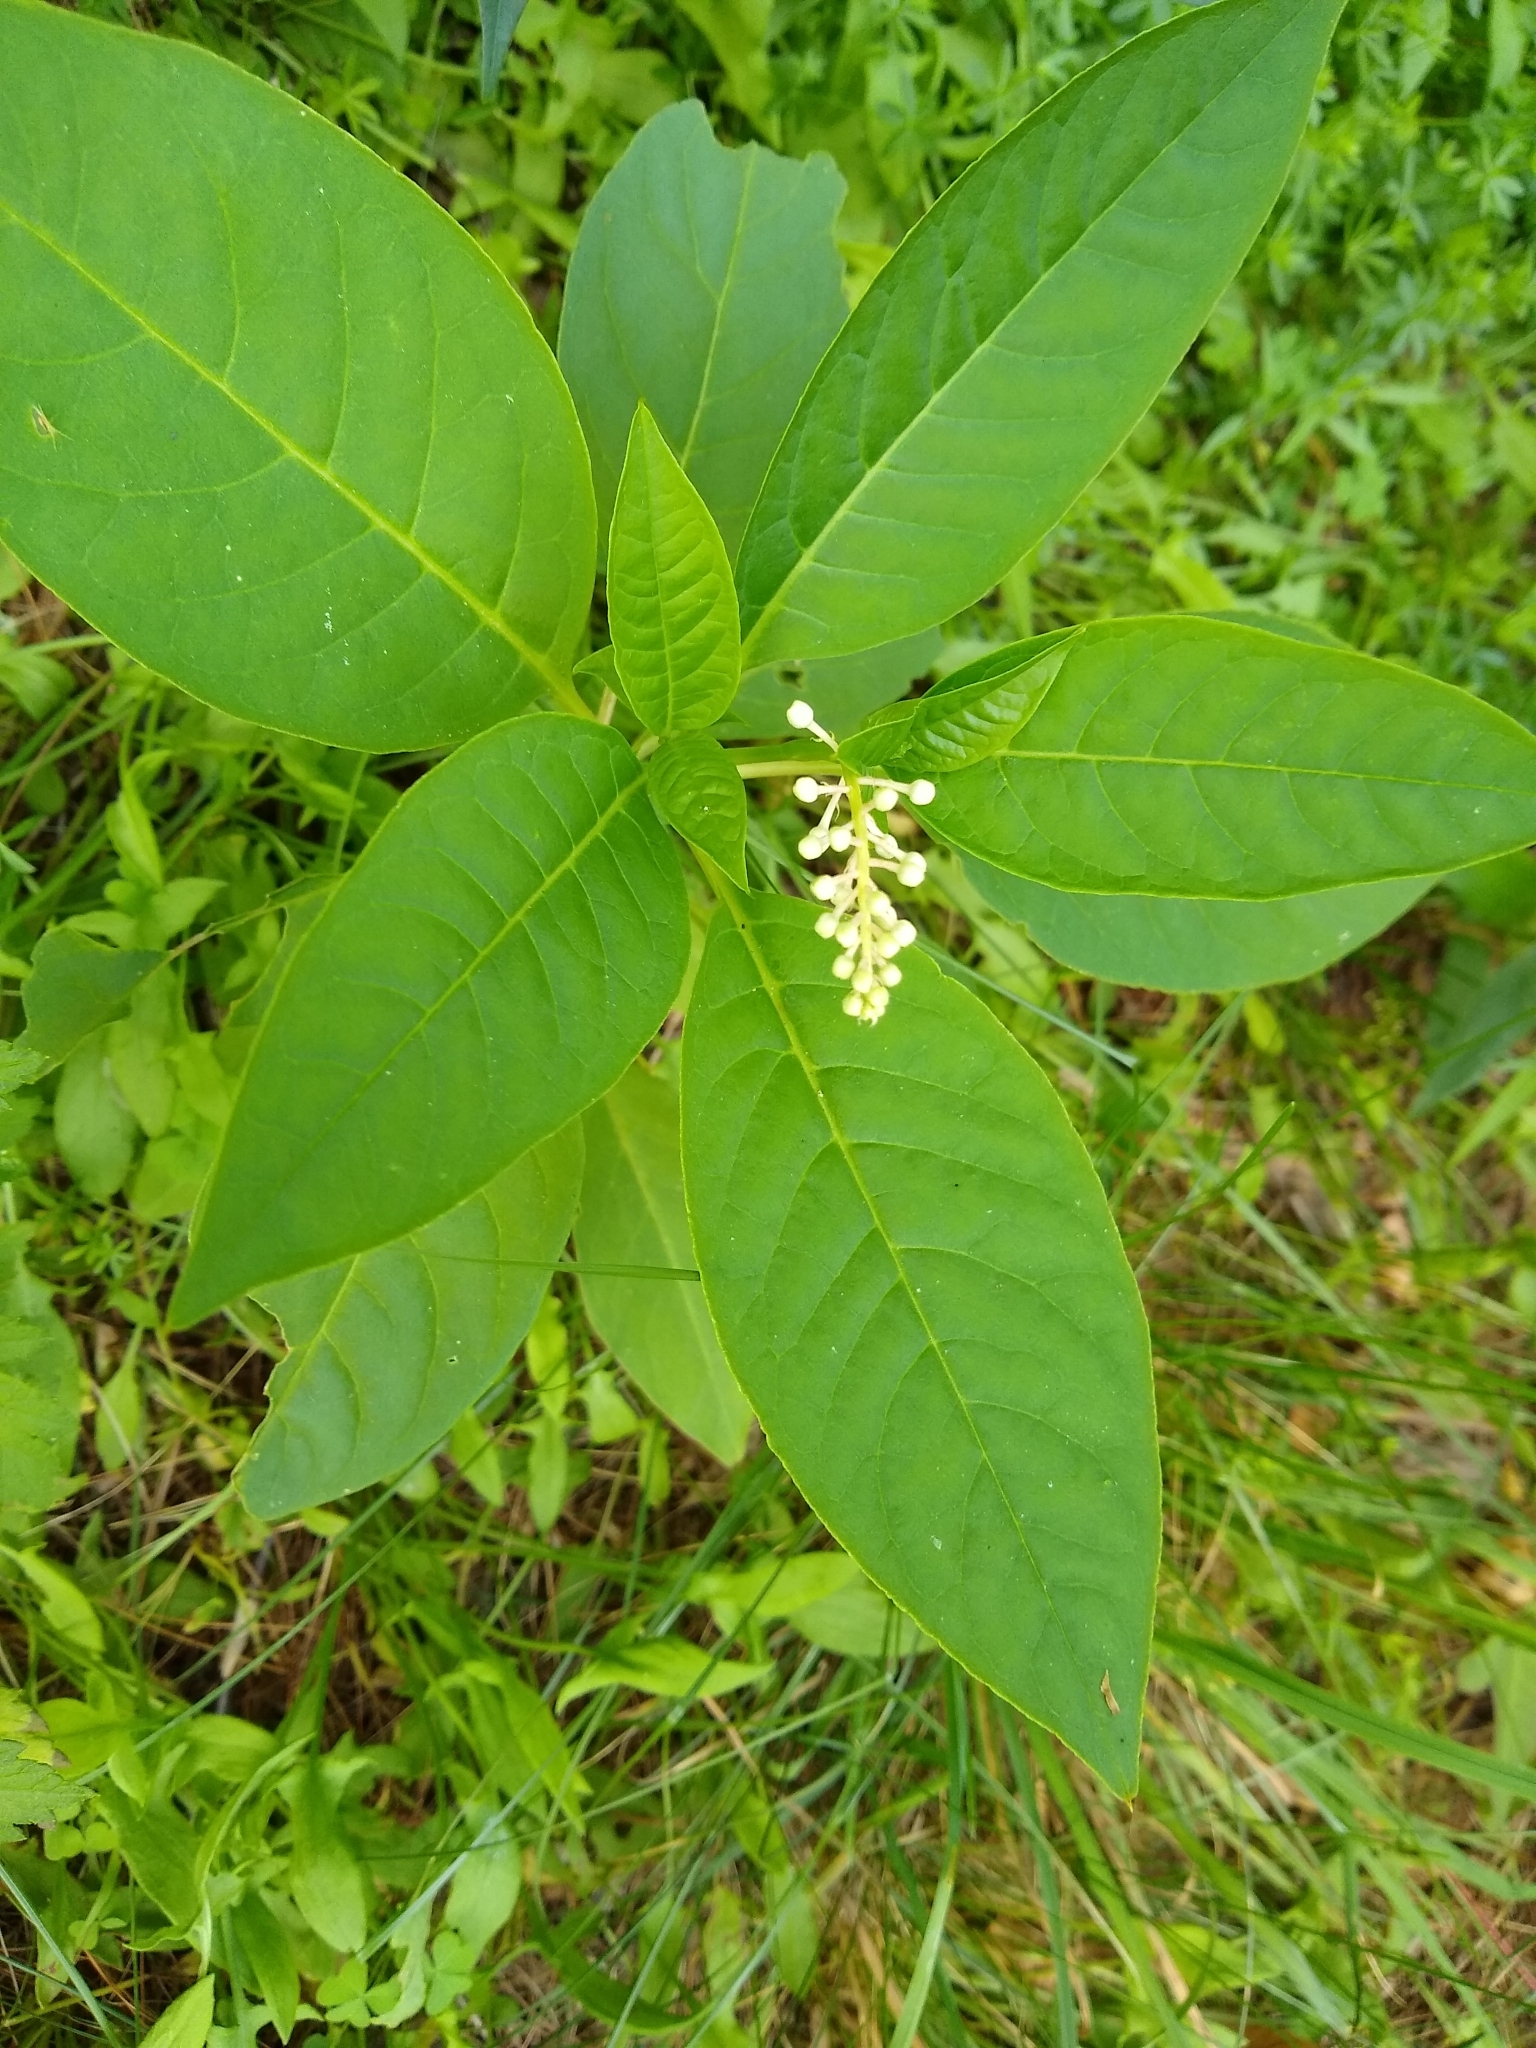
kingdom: Plantae
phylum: Tracheophyta
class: Magnoliopsida
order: Caryophyllales
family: Phytolaccaceae
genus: Phytolacca
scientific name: Phytolacca americana
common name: American pokeweed
